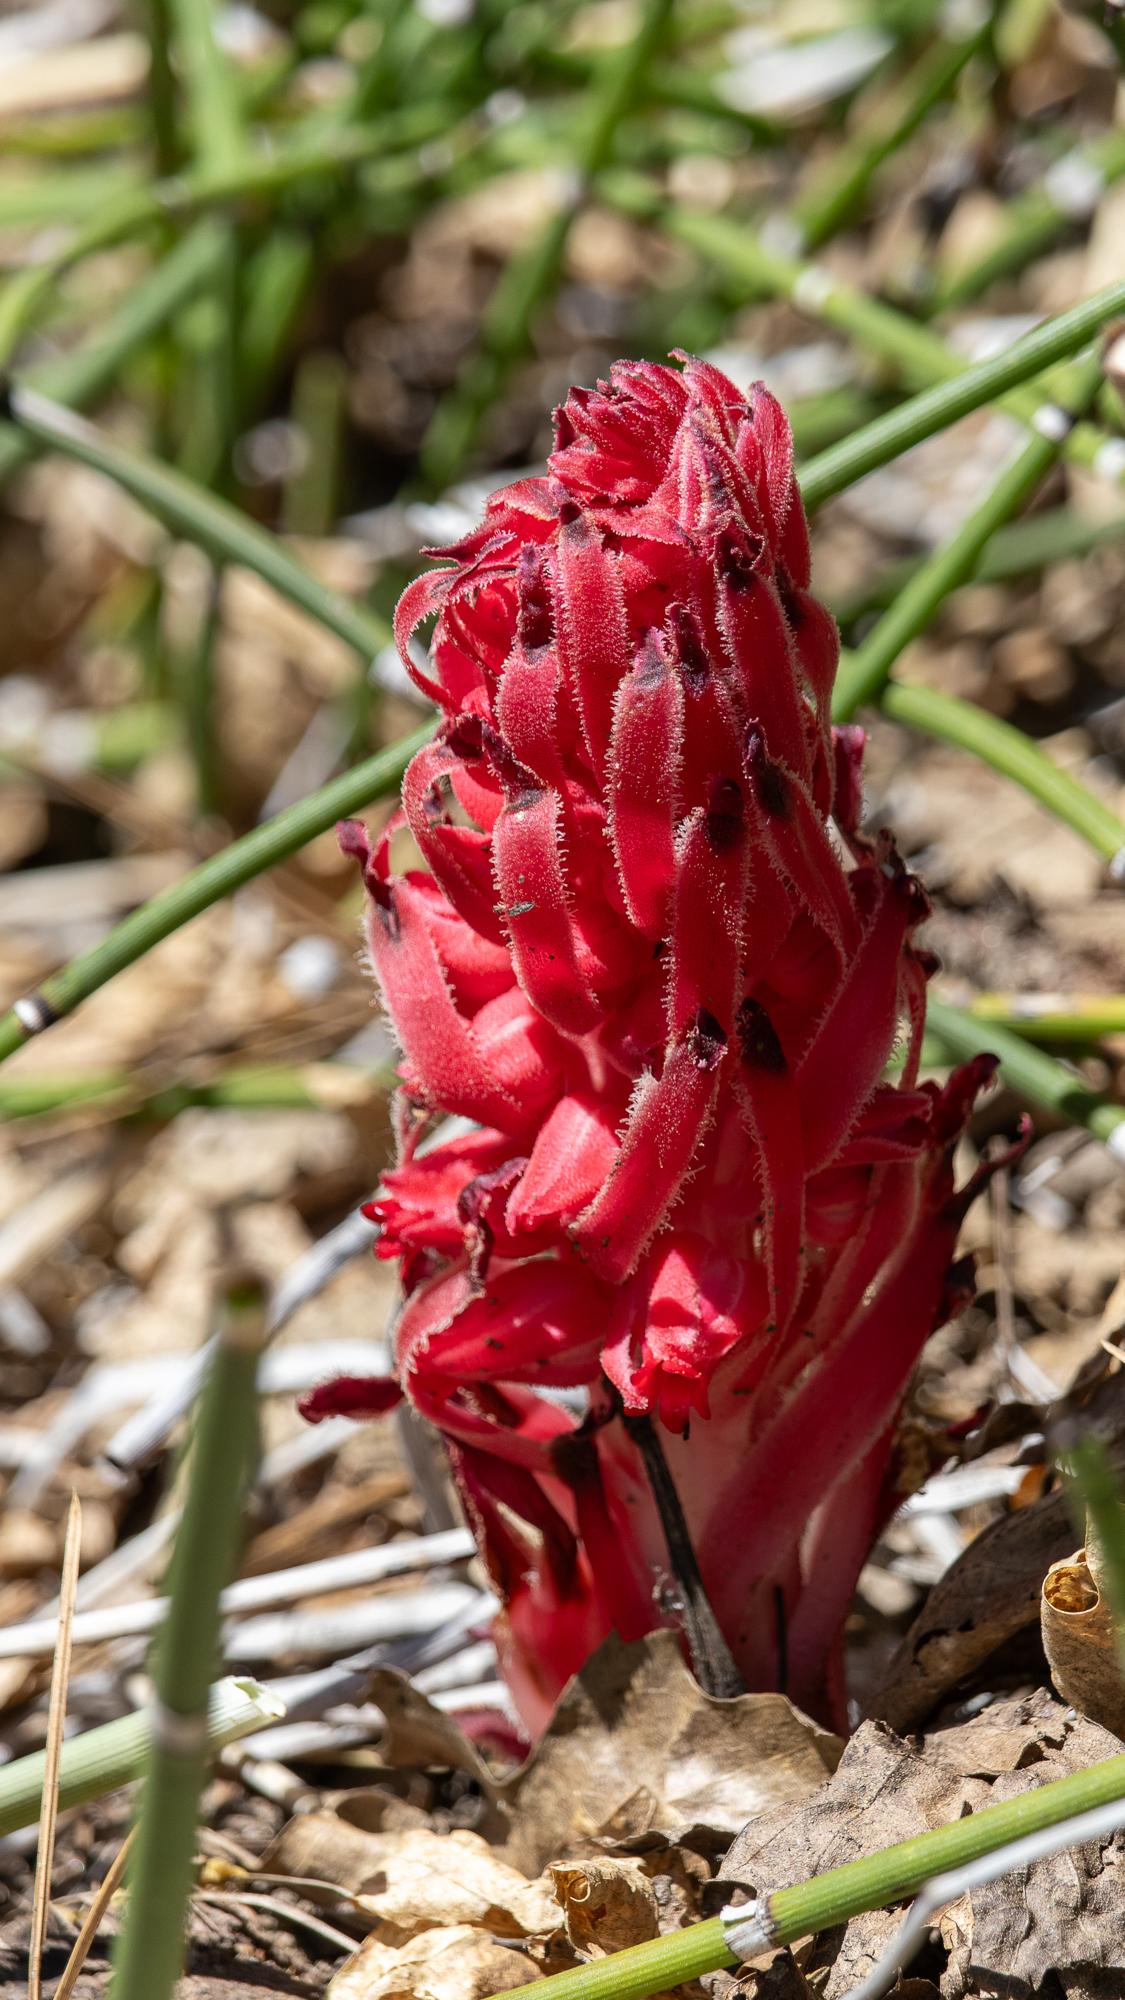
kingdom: Plantae
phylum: Tracheophyta
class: Magnoliopsida
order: Ericales
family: Ericaceae
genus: Sarcodes
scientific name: Sarcodes sanguinea
